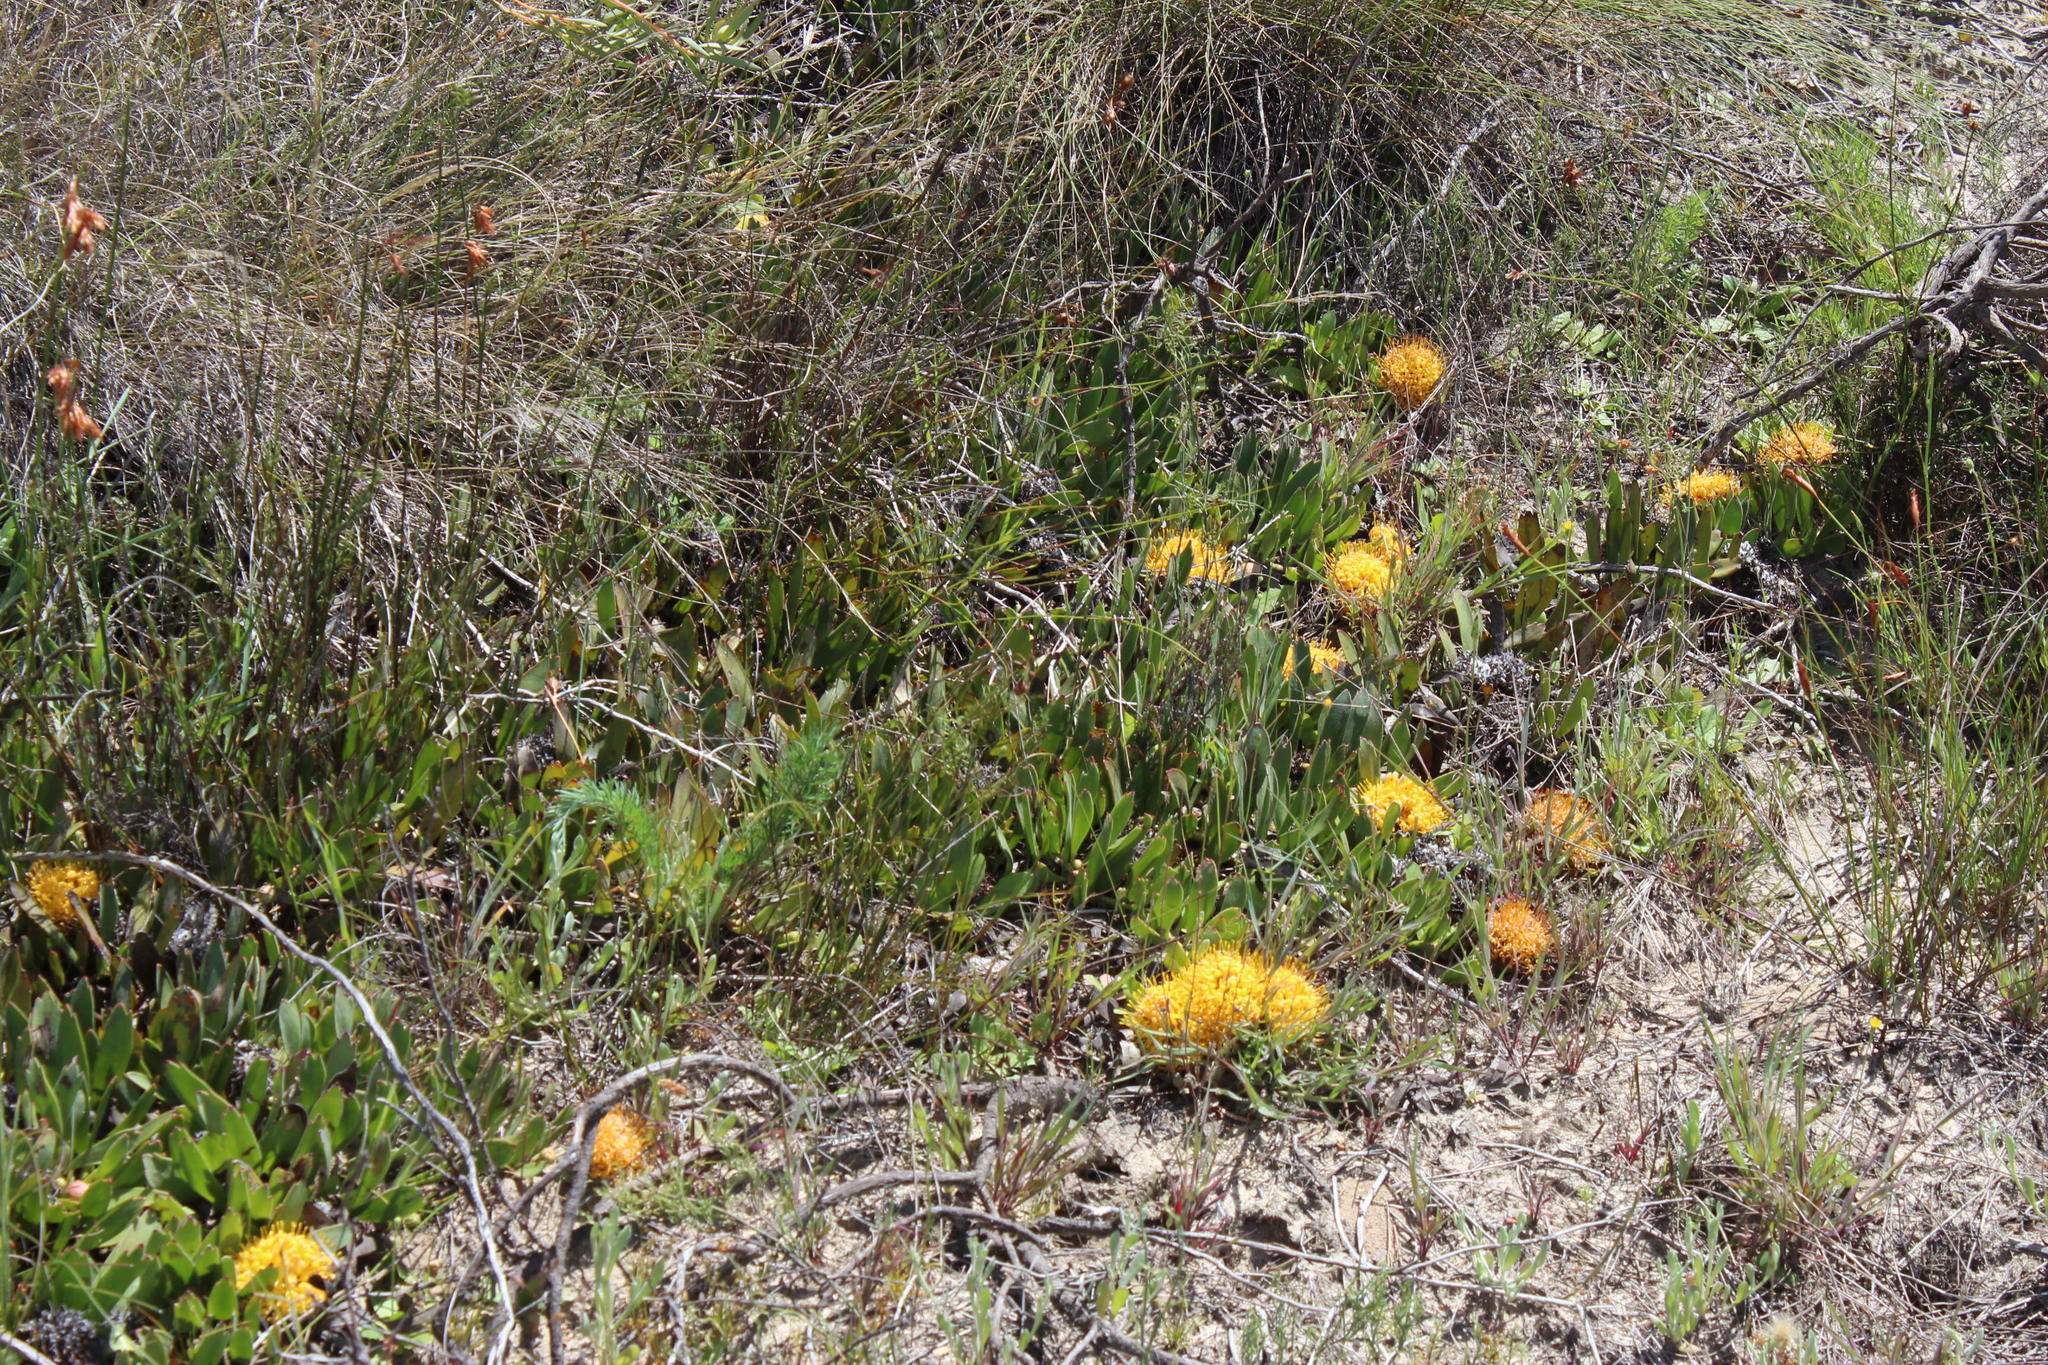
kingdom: Plantae
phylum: Tracheophyta
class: Magnoliopsida
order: Proteales
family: Proteaceae
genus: Leucospermum
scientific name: Leucospermum hypophyllocarpodendron
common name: Snakestem pincushion
